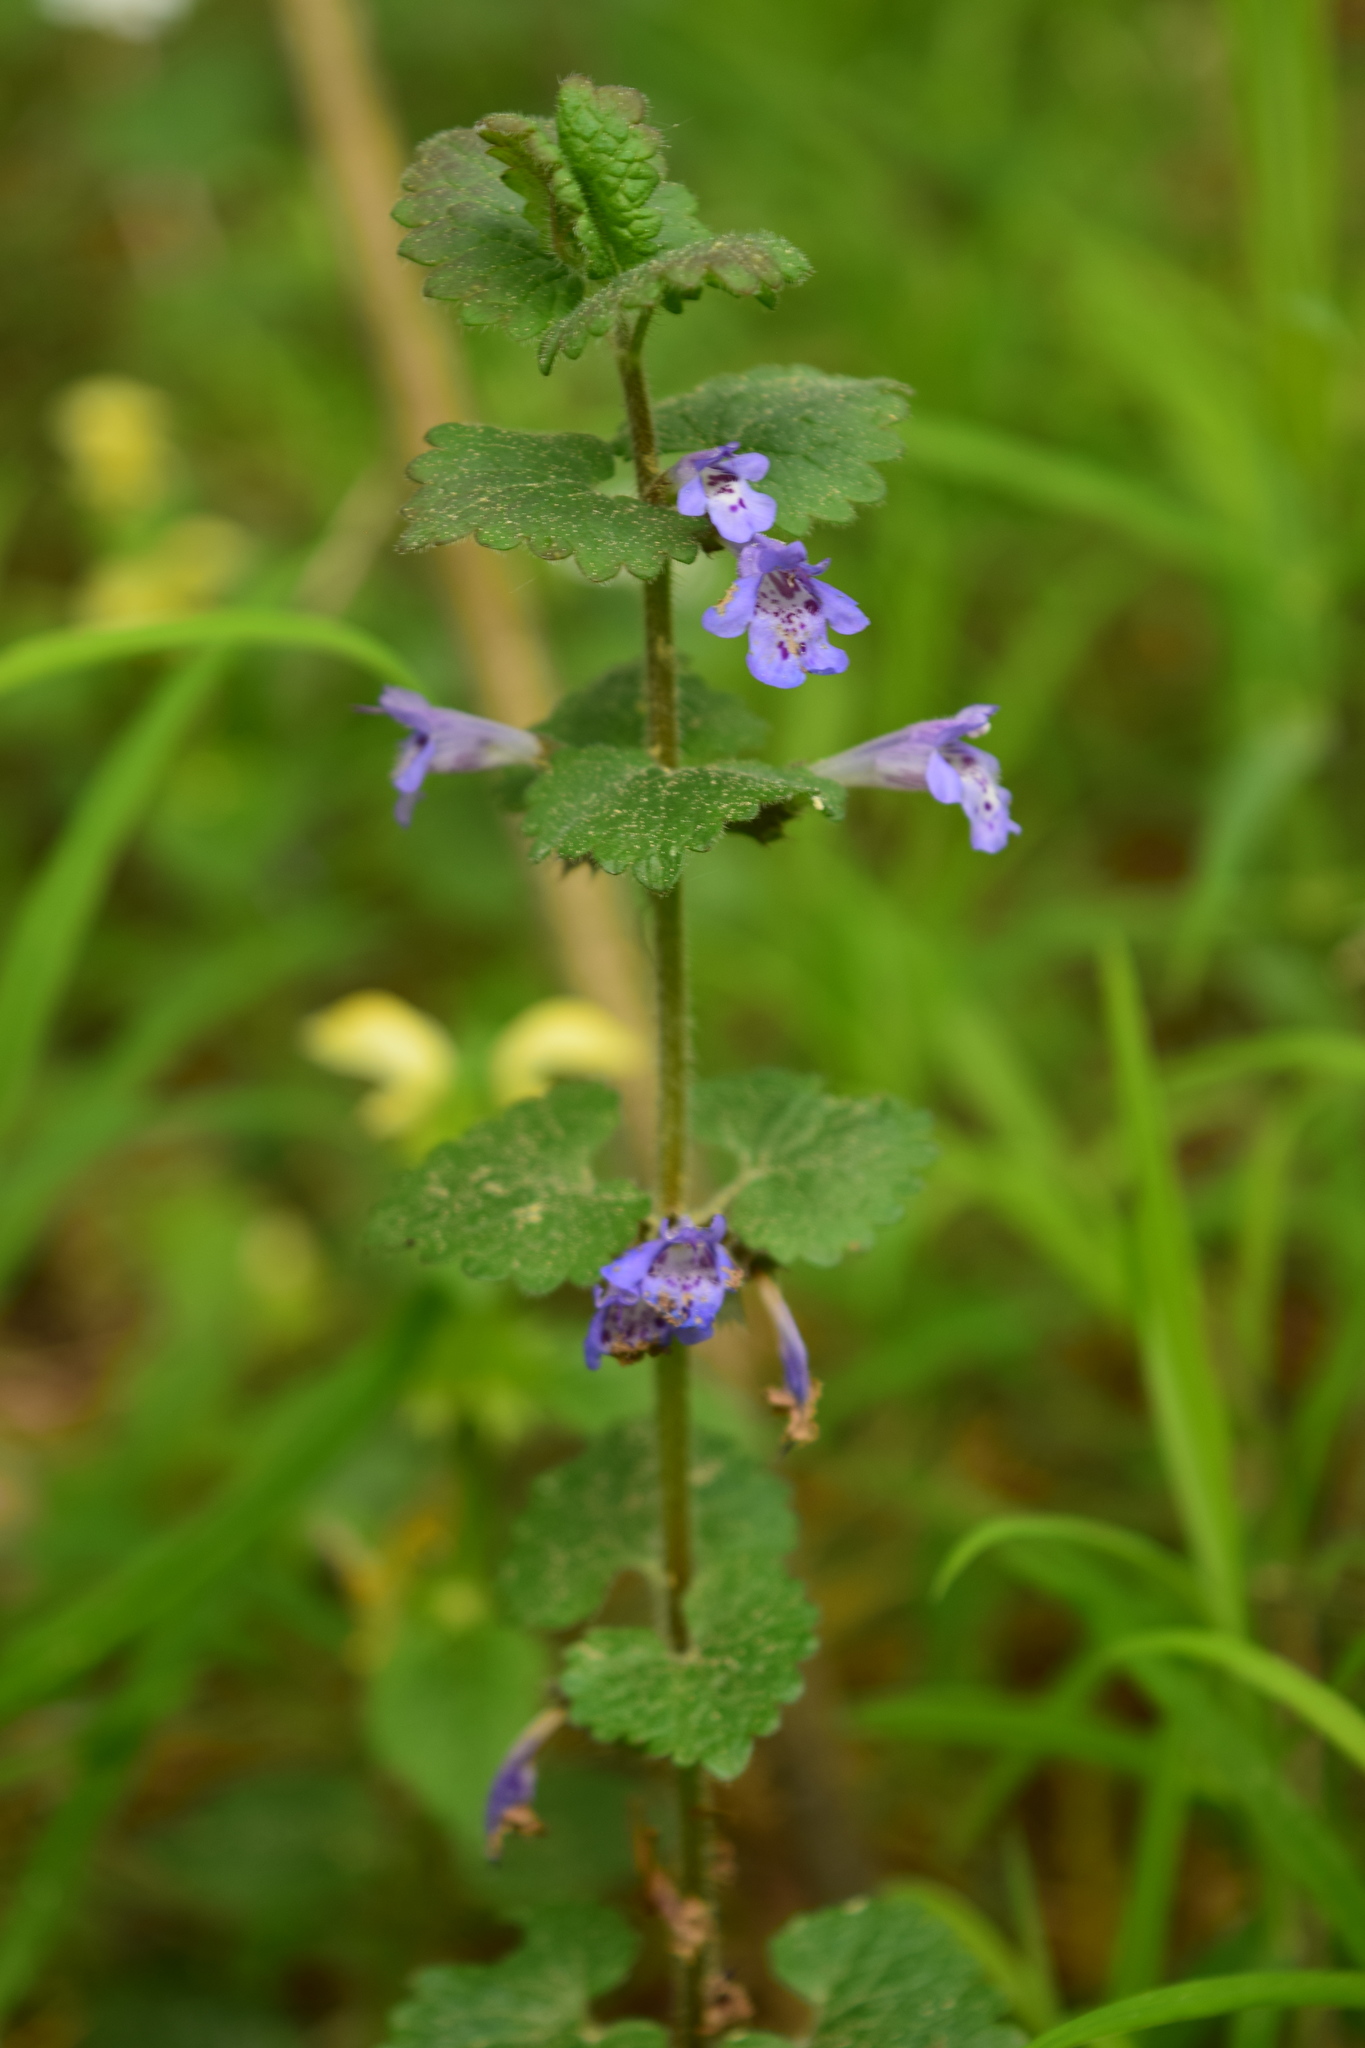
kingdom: Plantae
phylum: Tracheophyta
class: Magnoliopsida
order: Lamiales
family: Lamiaceae
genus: Glechoma
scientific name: Glechoma hederacea
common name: Ground ivy
